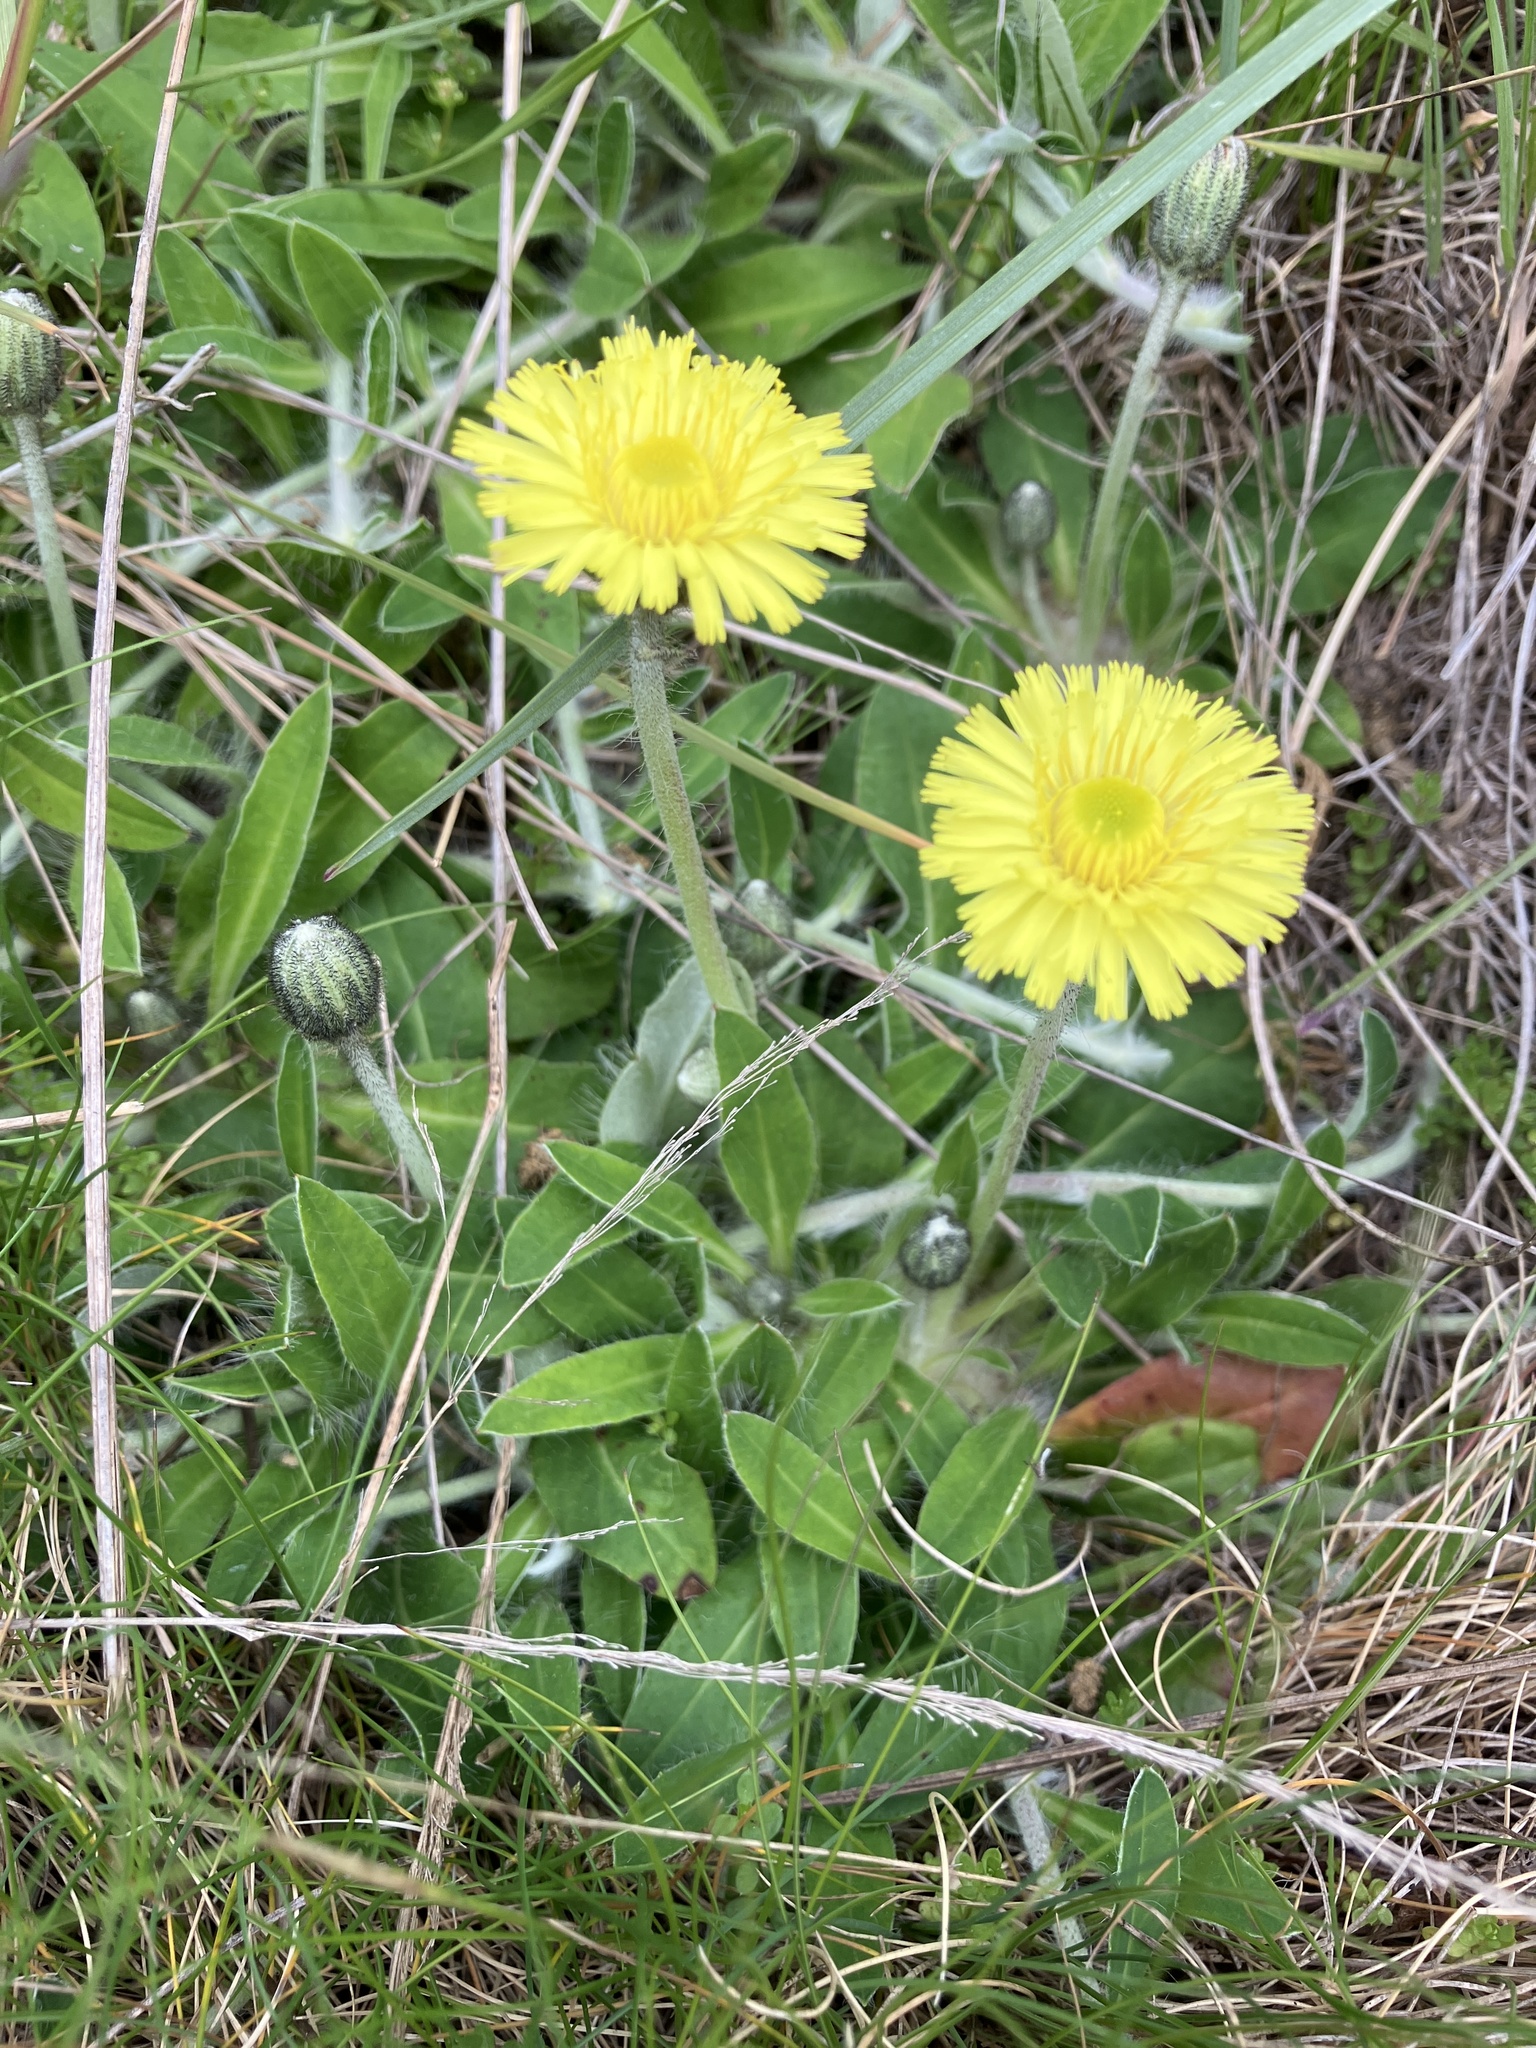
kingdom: Plantae
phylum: Tracheophyta
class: Magnoliopsida
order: Asterales
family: Asteraceae
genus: Pilosella
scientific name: Pilosella officinarum
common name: Mouse-ear hawkweed
